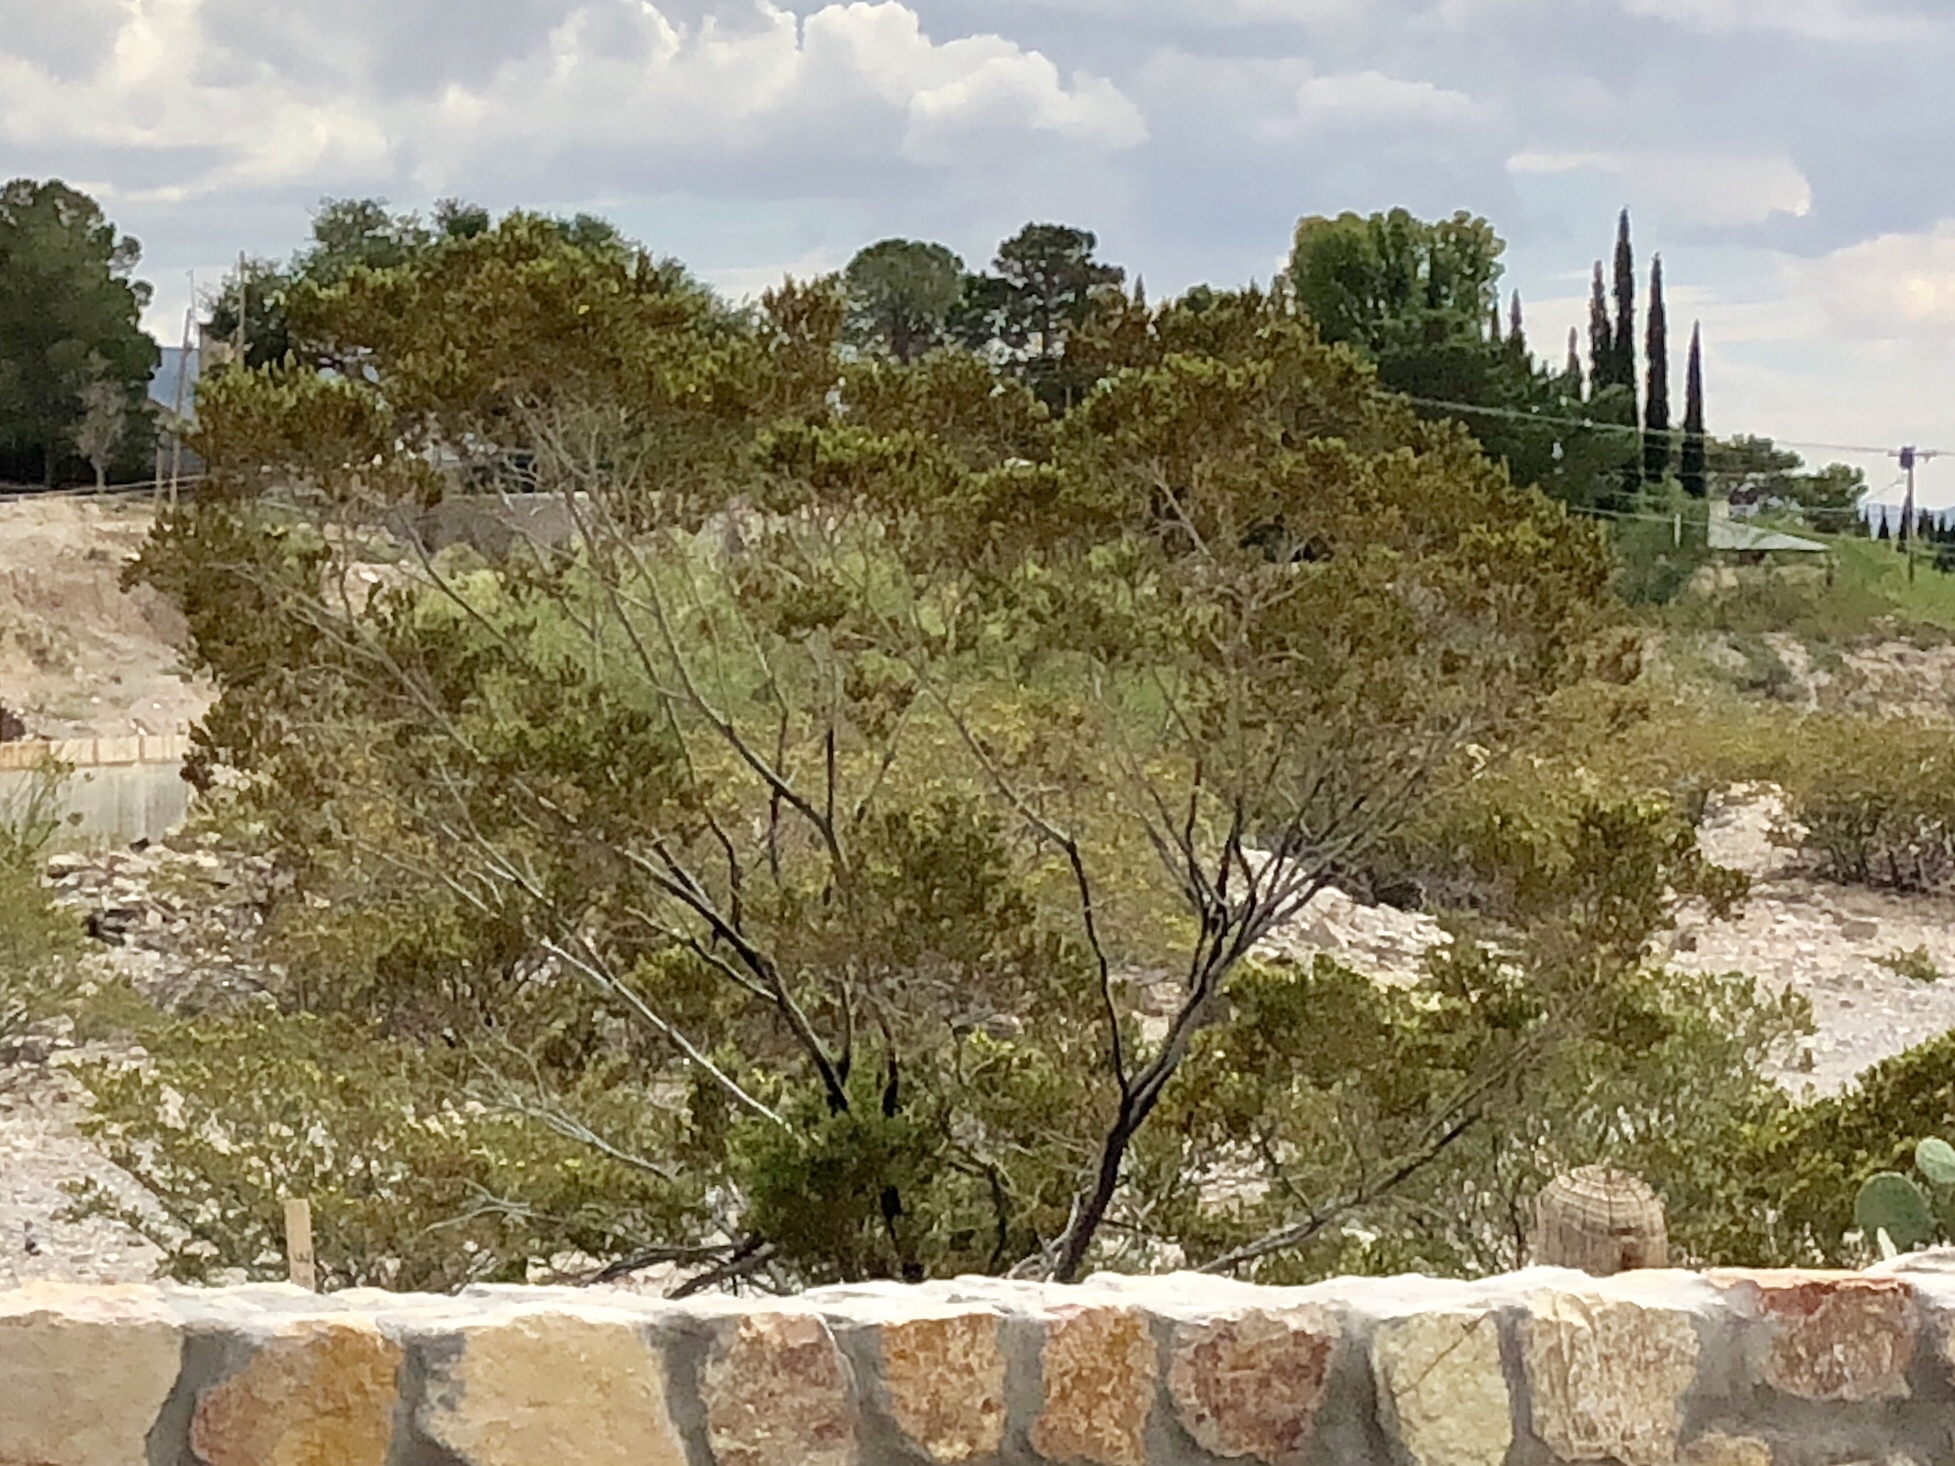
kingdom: Plantae
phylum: Tracheophyta
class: Magnoliopsida
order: Zygophyllales
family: Zygophyllaceae
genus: Larrea
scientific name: Larrea tridentata
